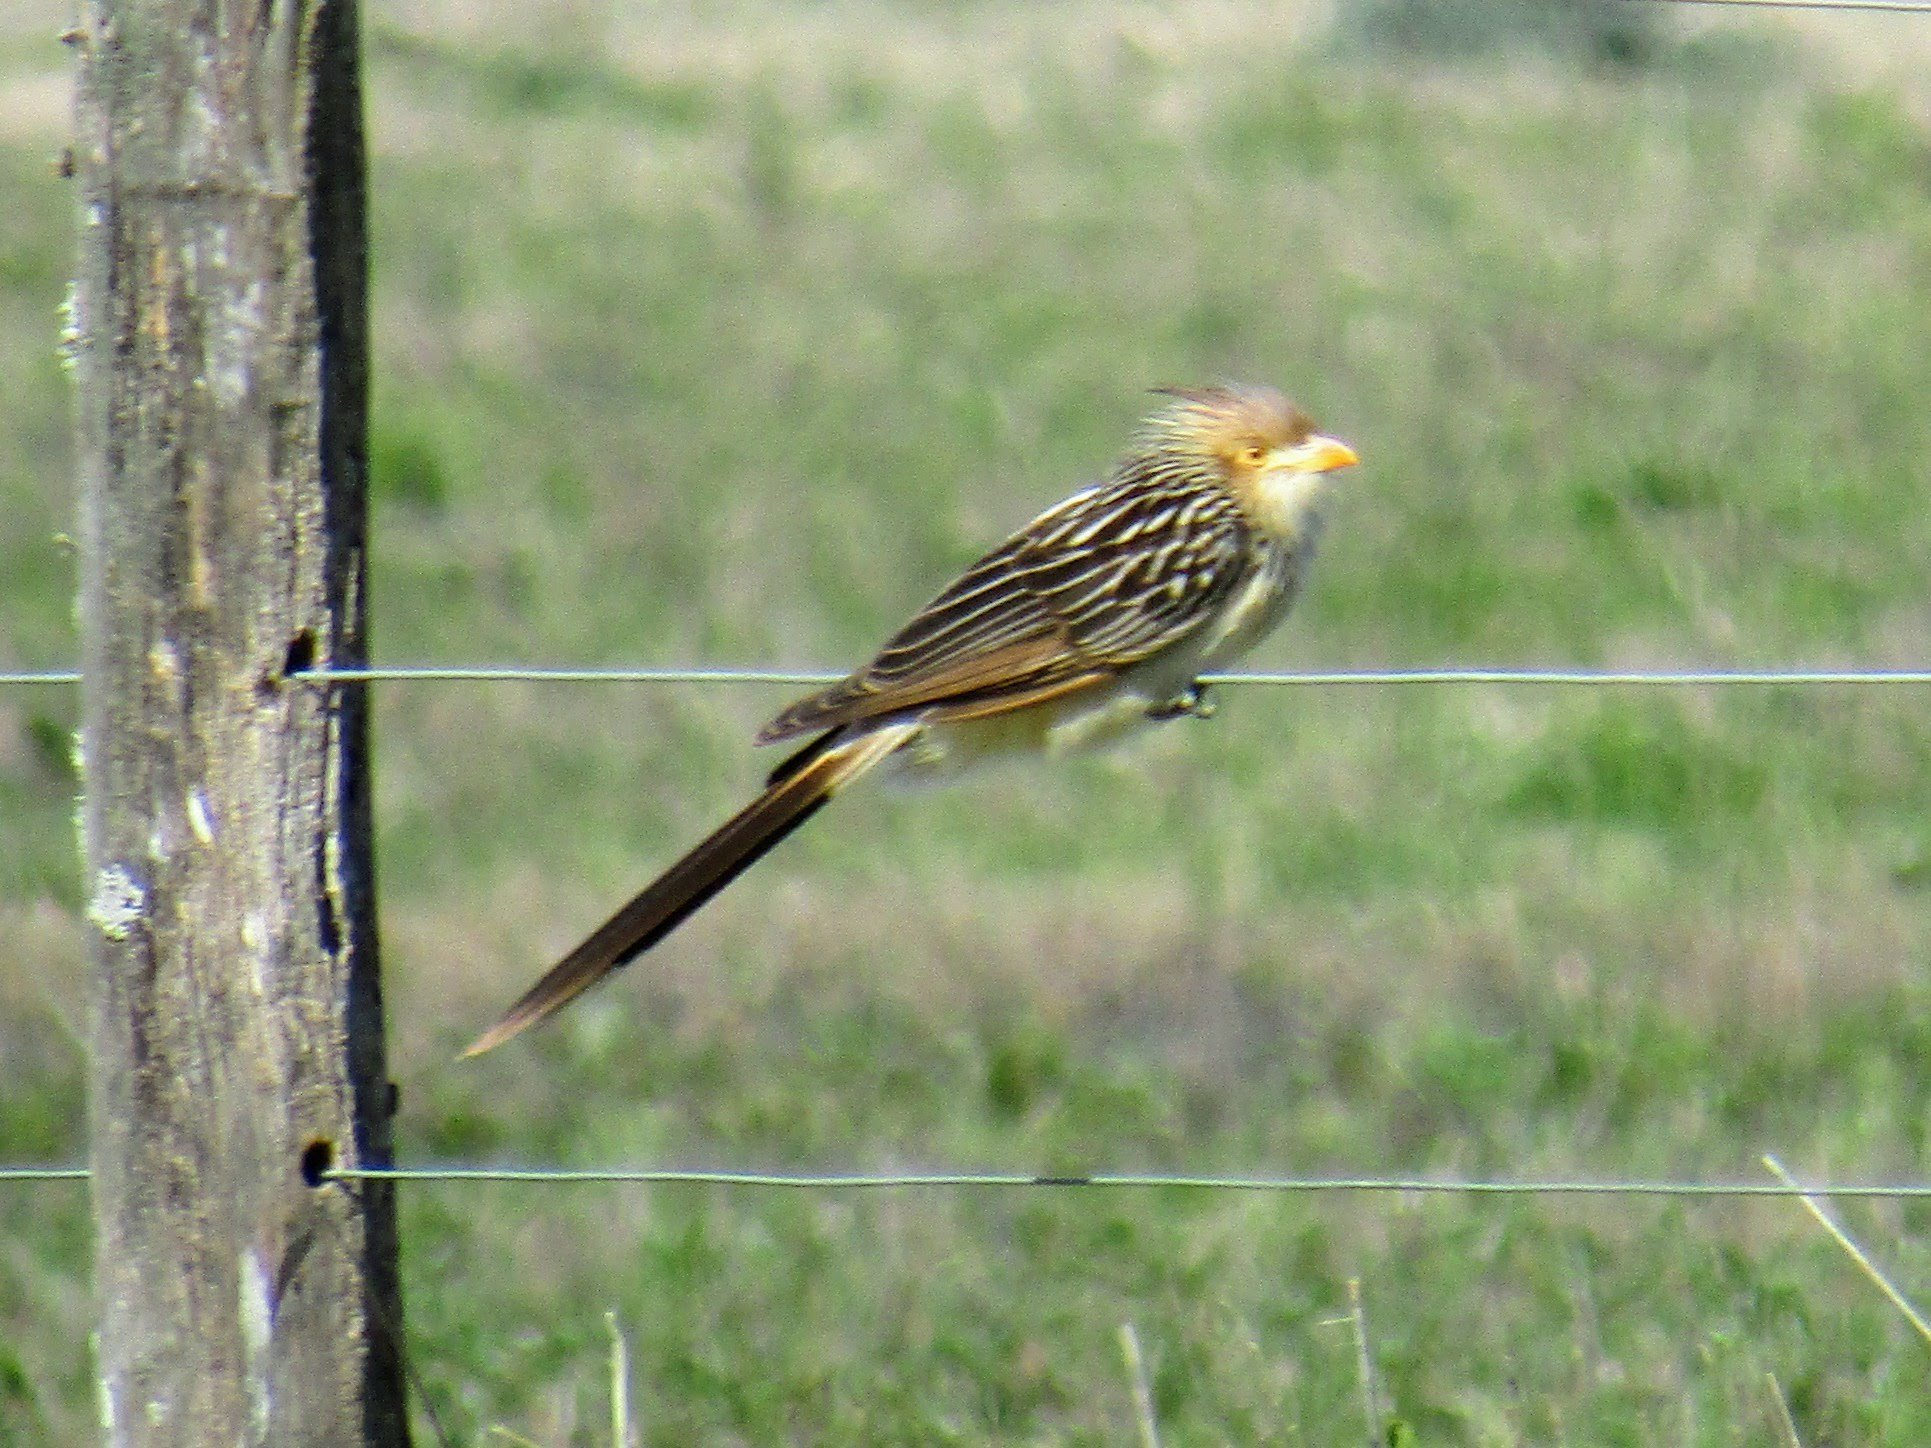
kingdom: Animalia
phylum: Chordata
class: Aves
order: Cuculiformes
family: Cuculidae
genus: Guira
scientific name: Guira guira
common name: Guira cuckoo
